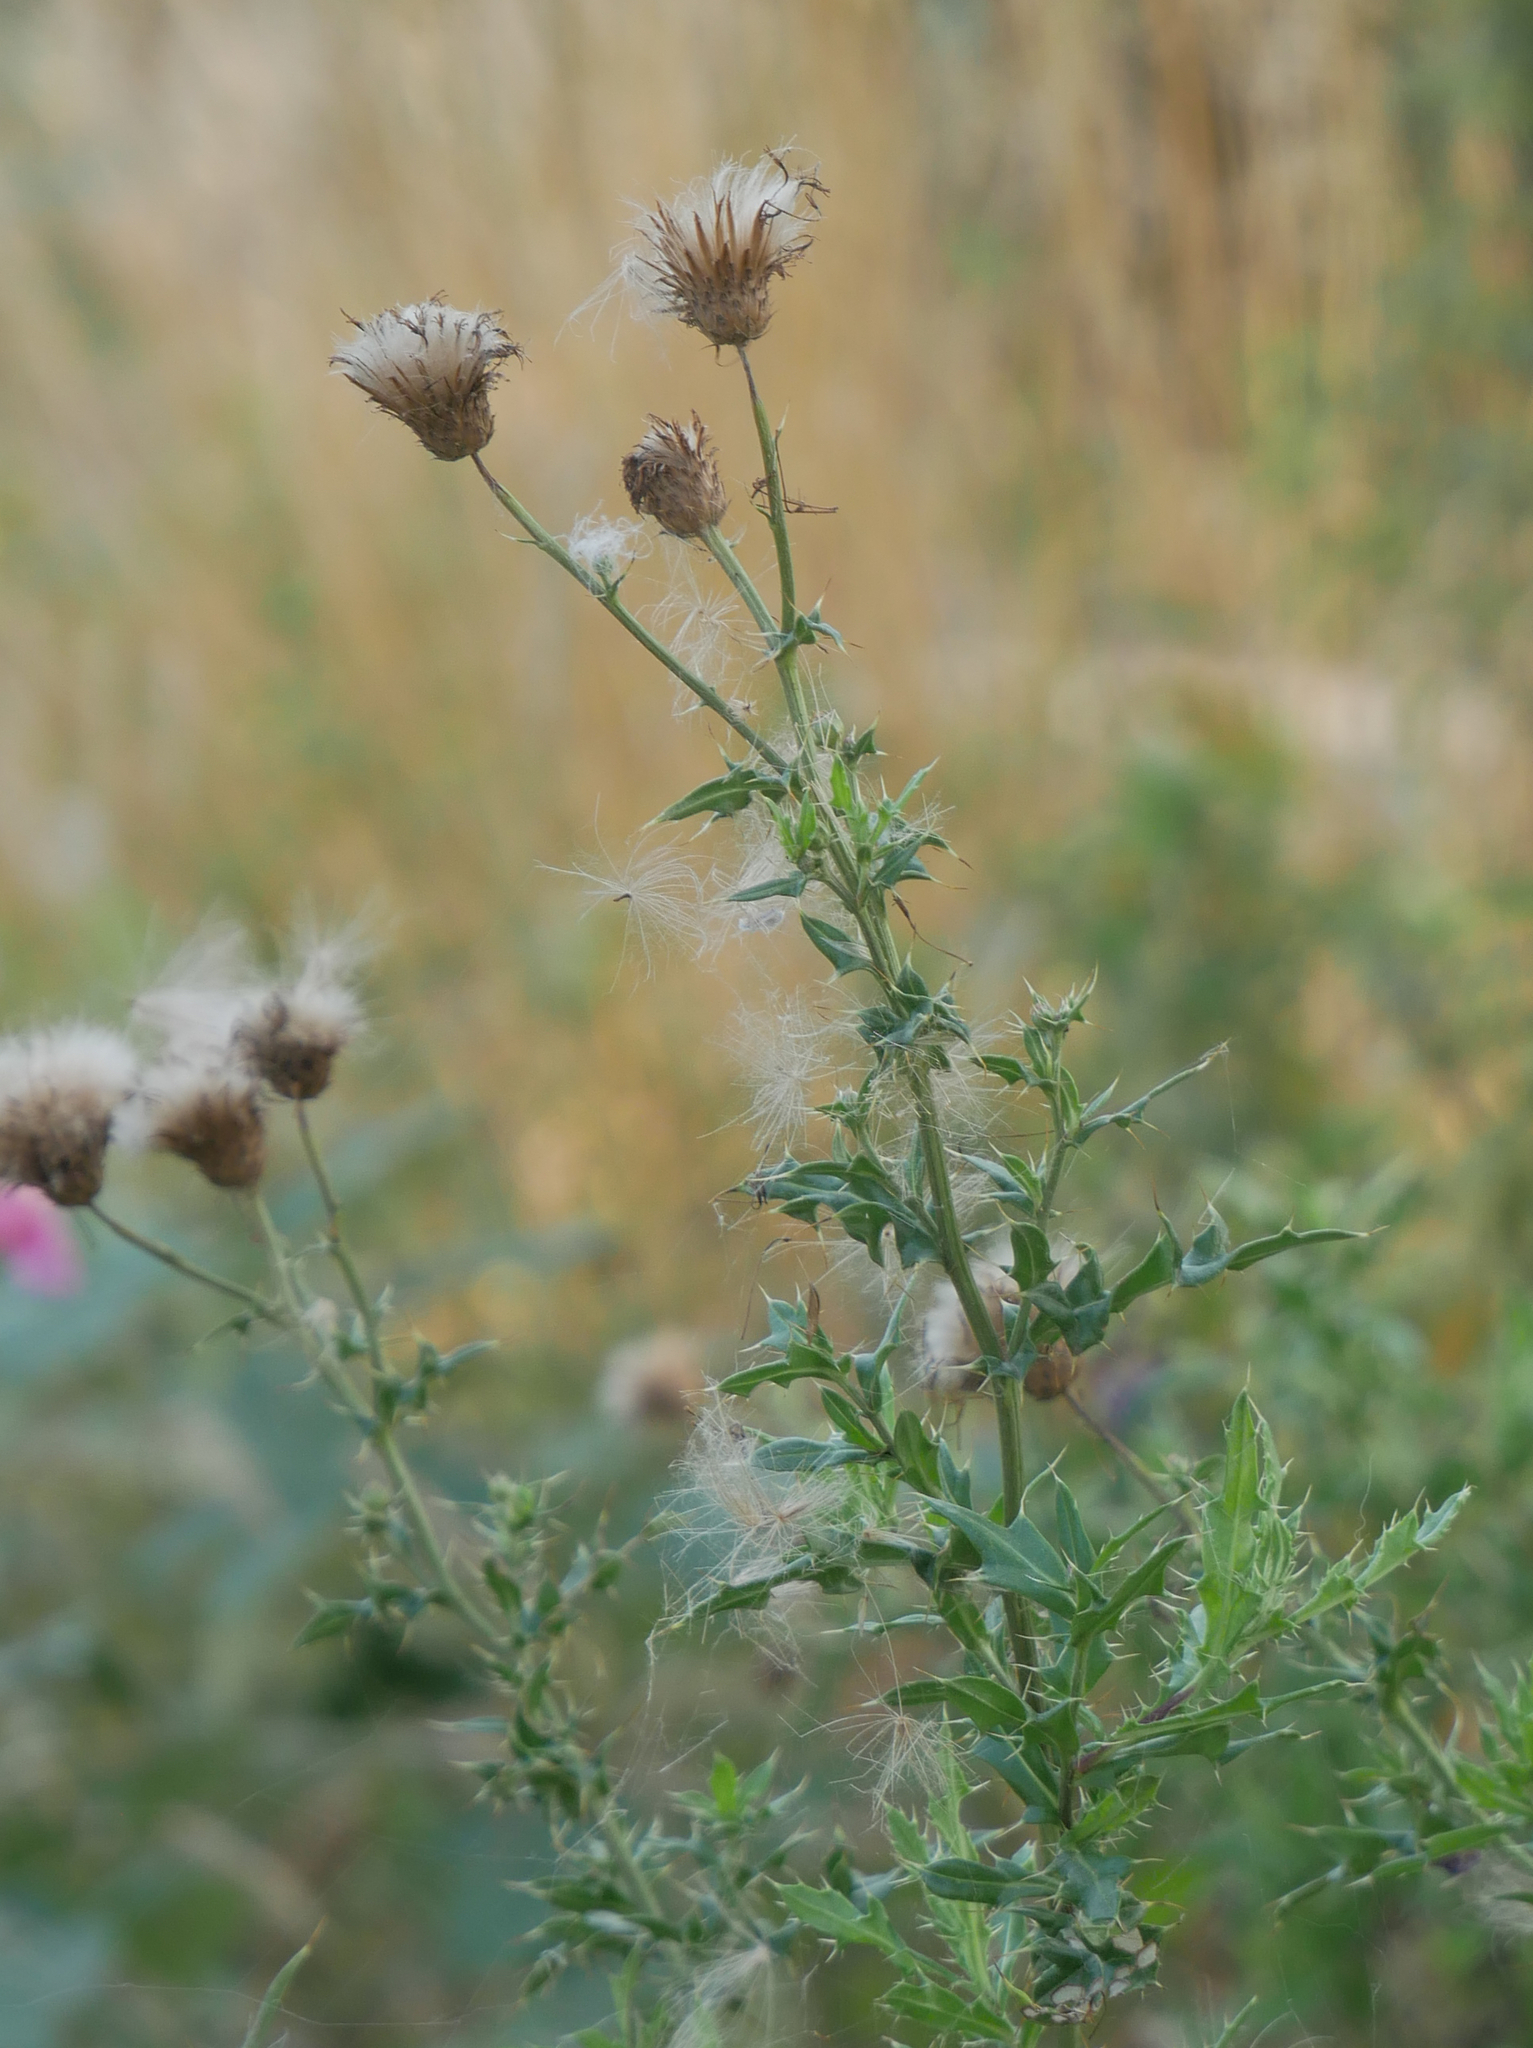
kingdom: Plantae
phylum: Tracheophyta
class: Magnoliopsida
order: Asterales
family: Asteraceae
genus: Cirsium
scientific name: Cirsium arvense
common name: Creeping thistle
